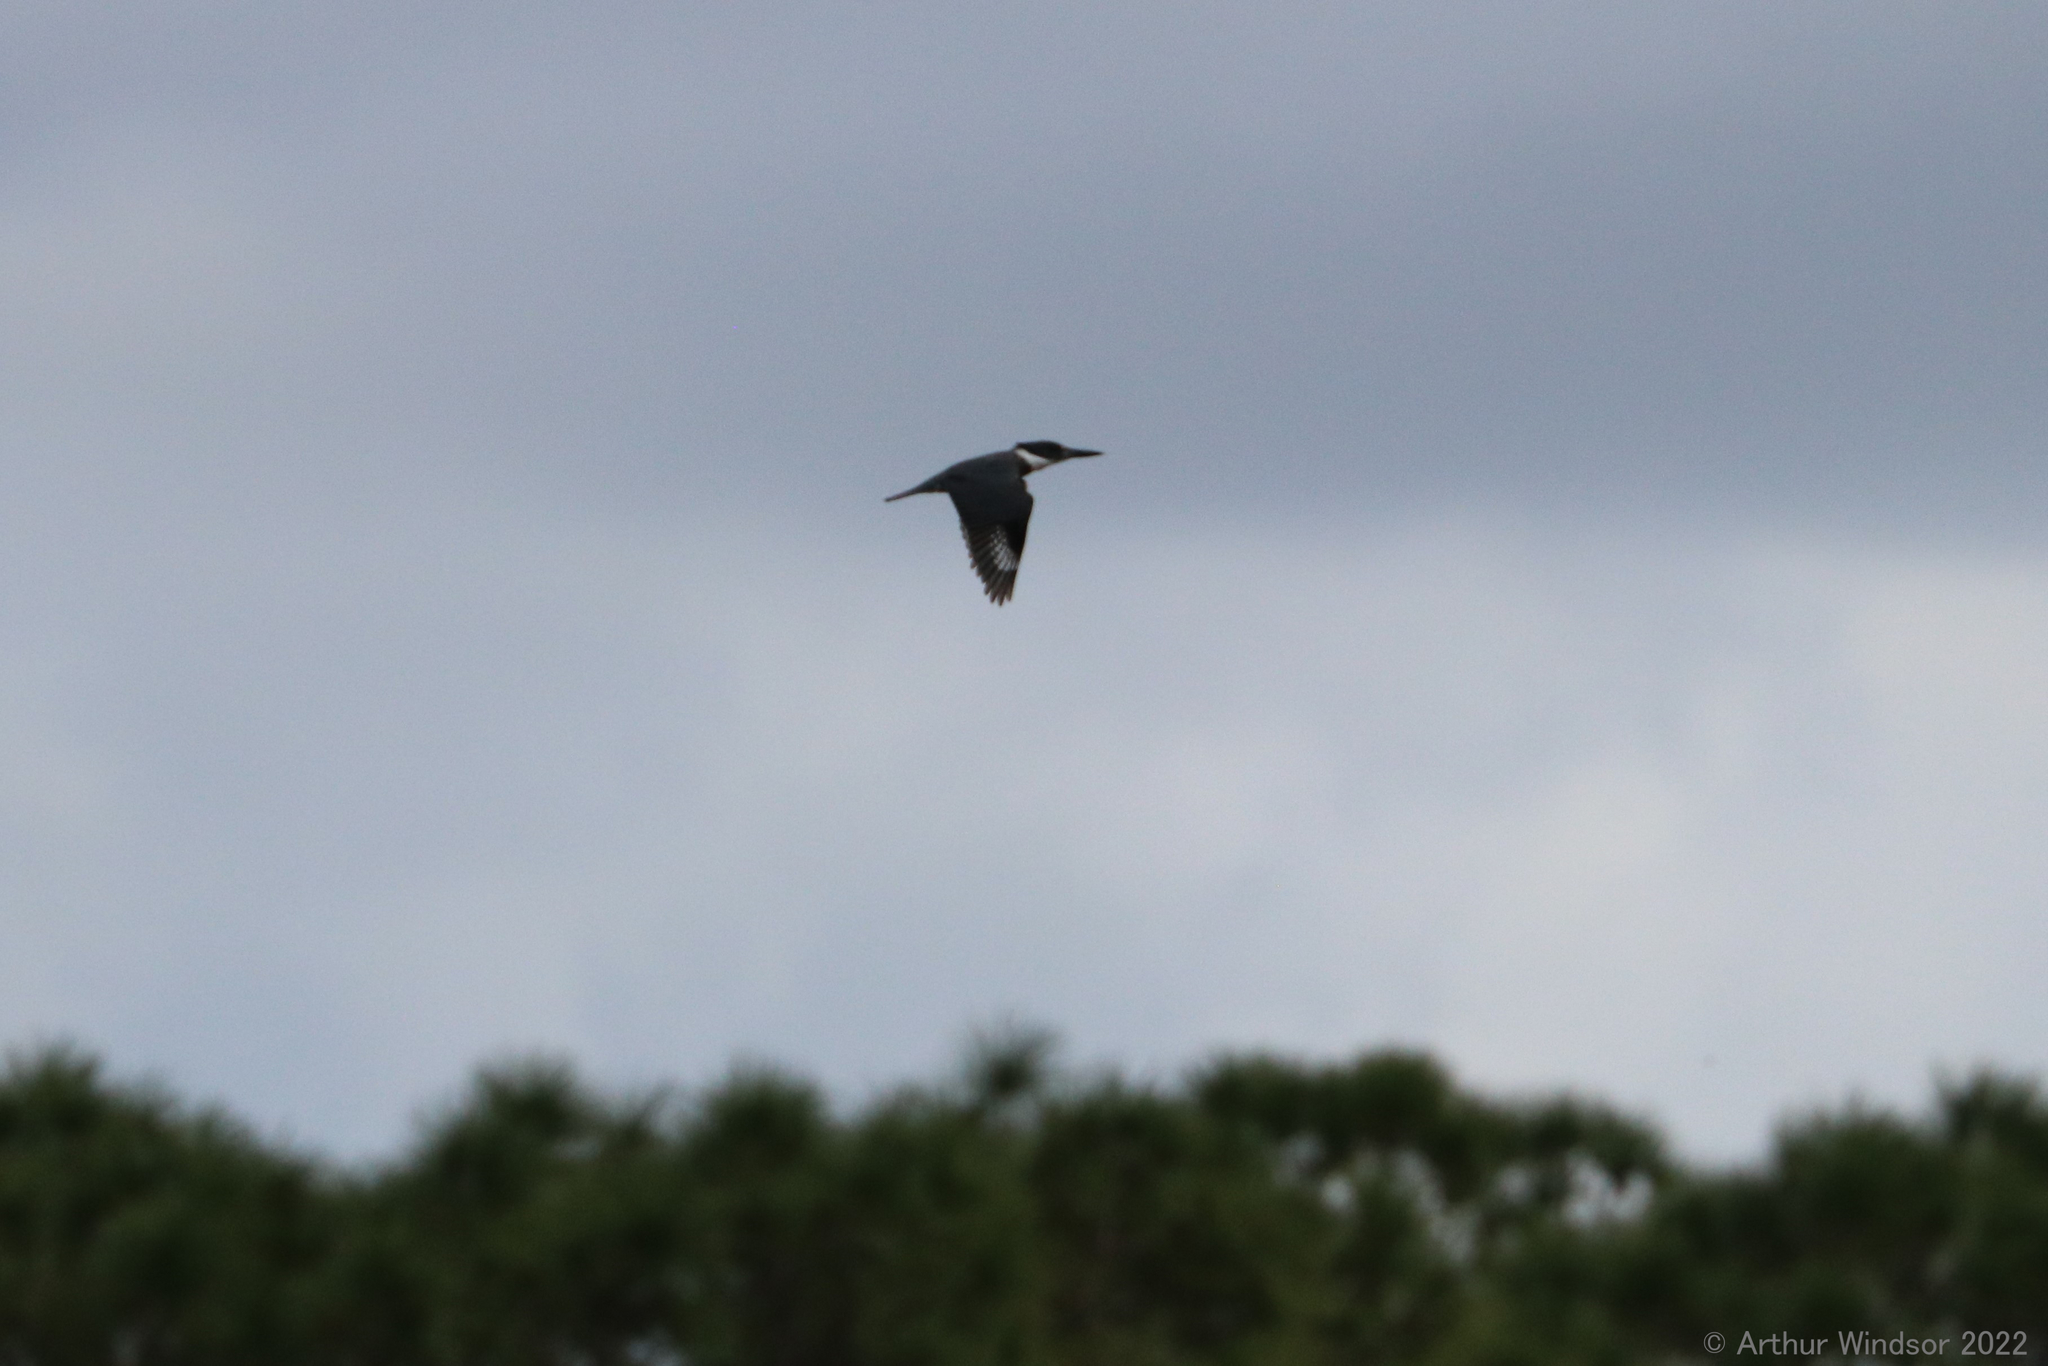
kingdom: Animalia
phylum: Chordata
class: Aves
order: Coraciiformes
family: Alcedinidae
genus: Megaceryle
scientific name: Megaceryle alcyon
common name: Belted kingfisher
